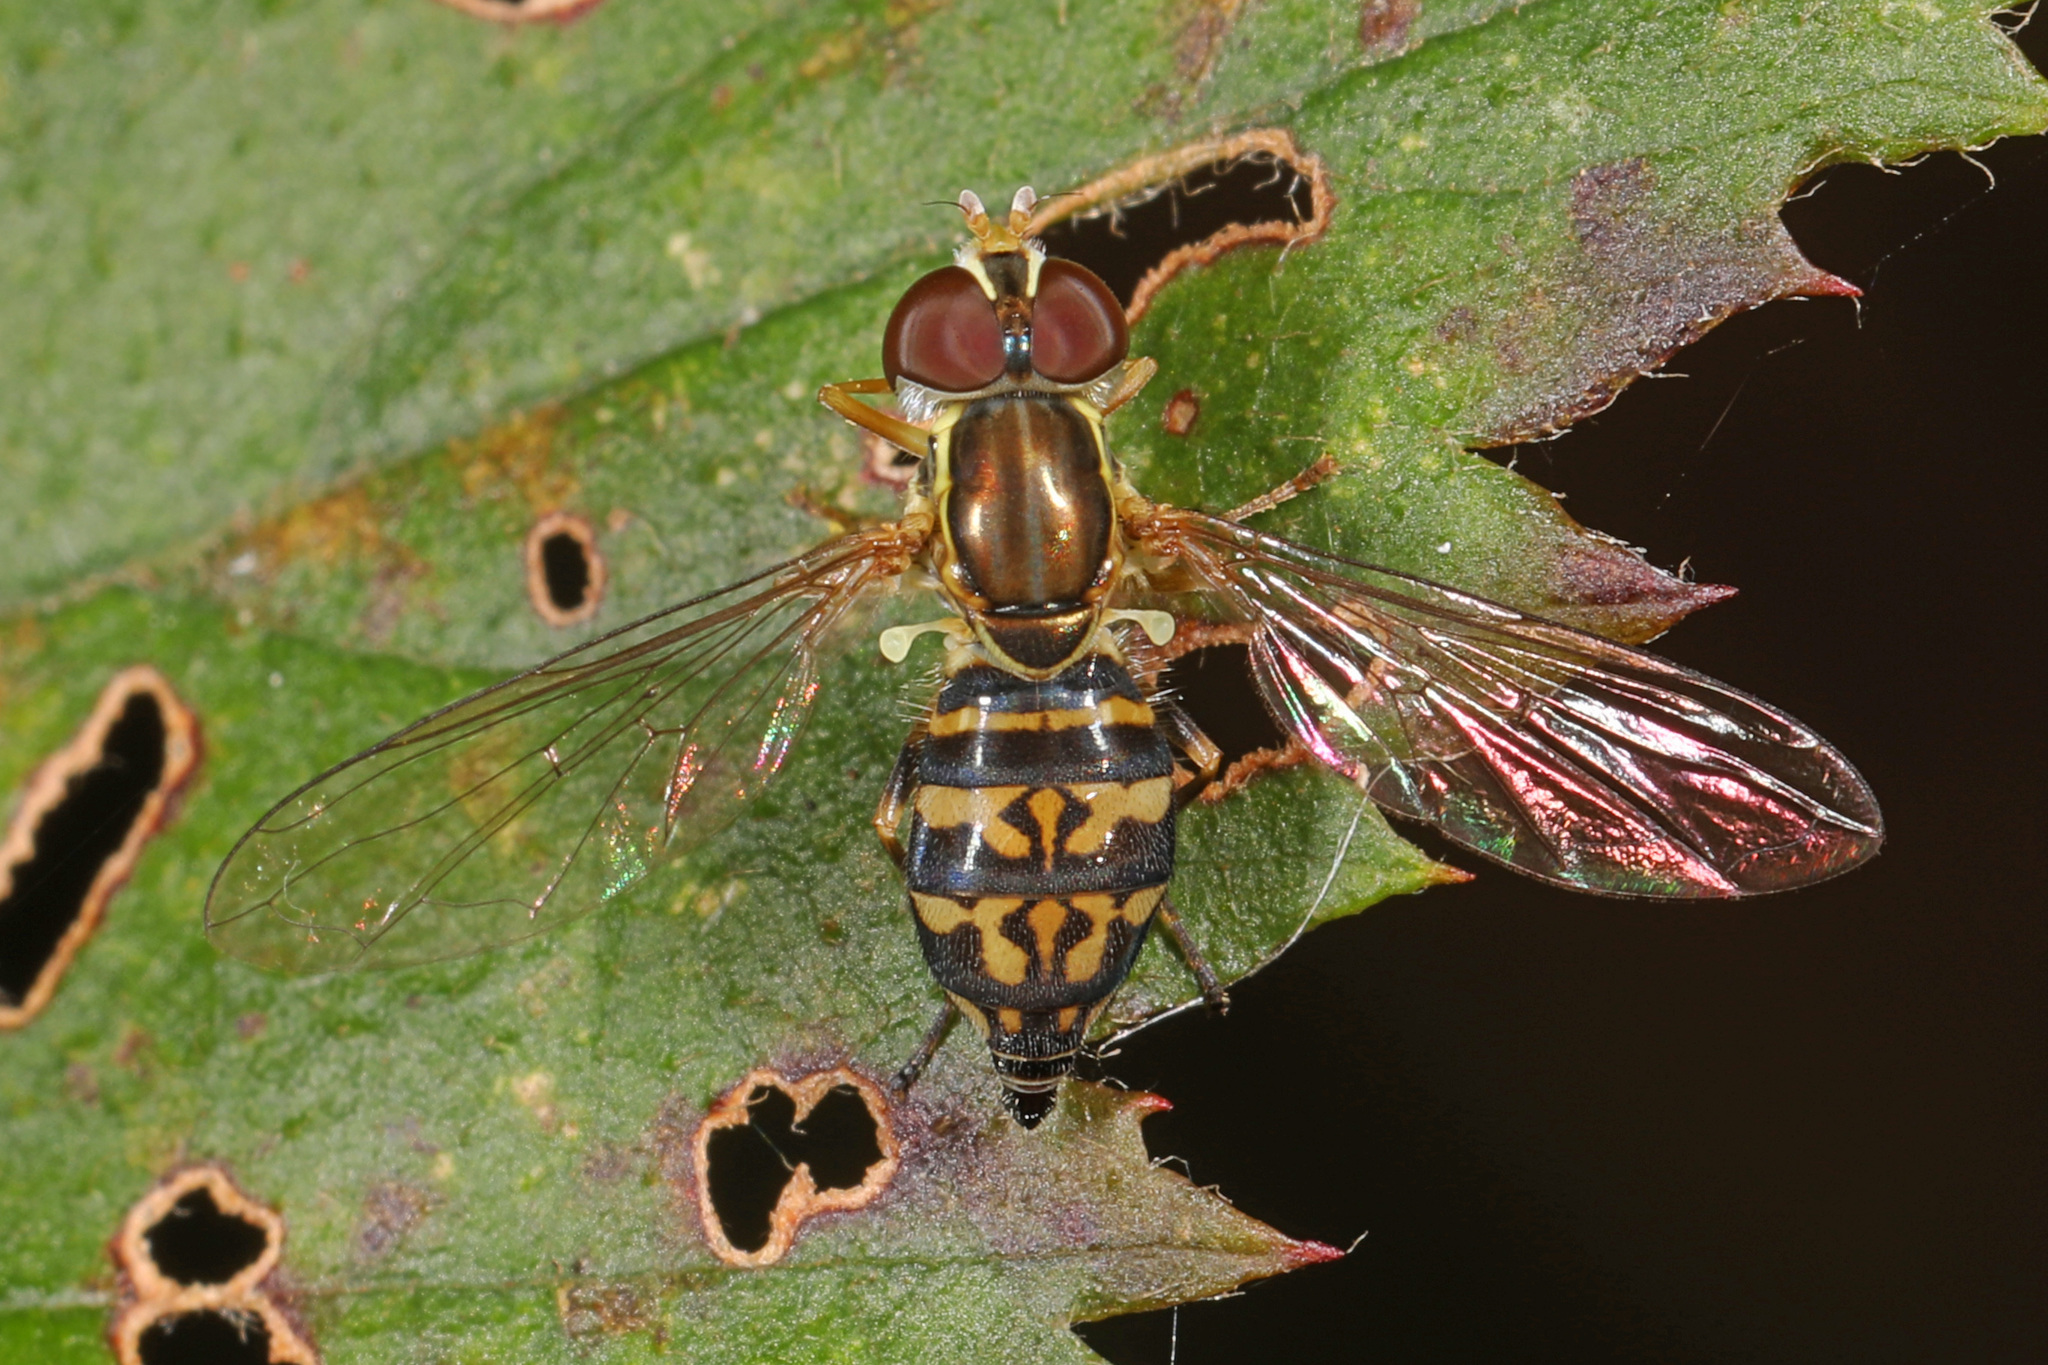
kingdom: Animalia
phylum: Arthropoda
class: Insecta
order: Diptera
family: Syrphidae
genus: Toxomerus
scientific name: Toxomerus geminatus
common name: Eastern calligrapher
